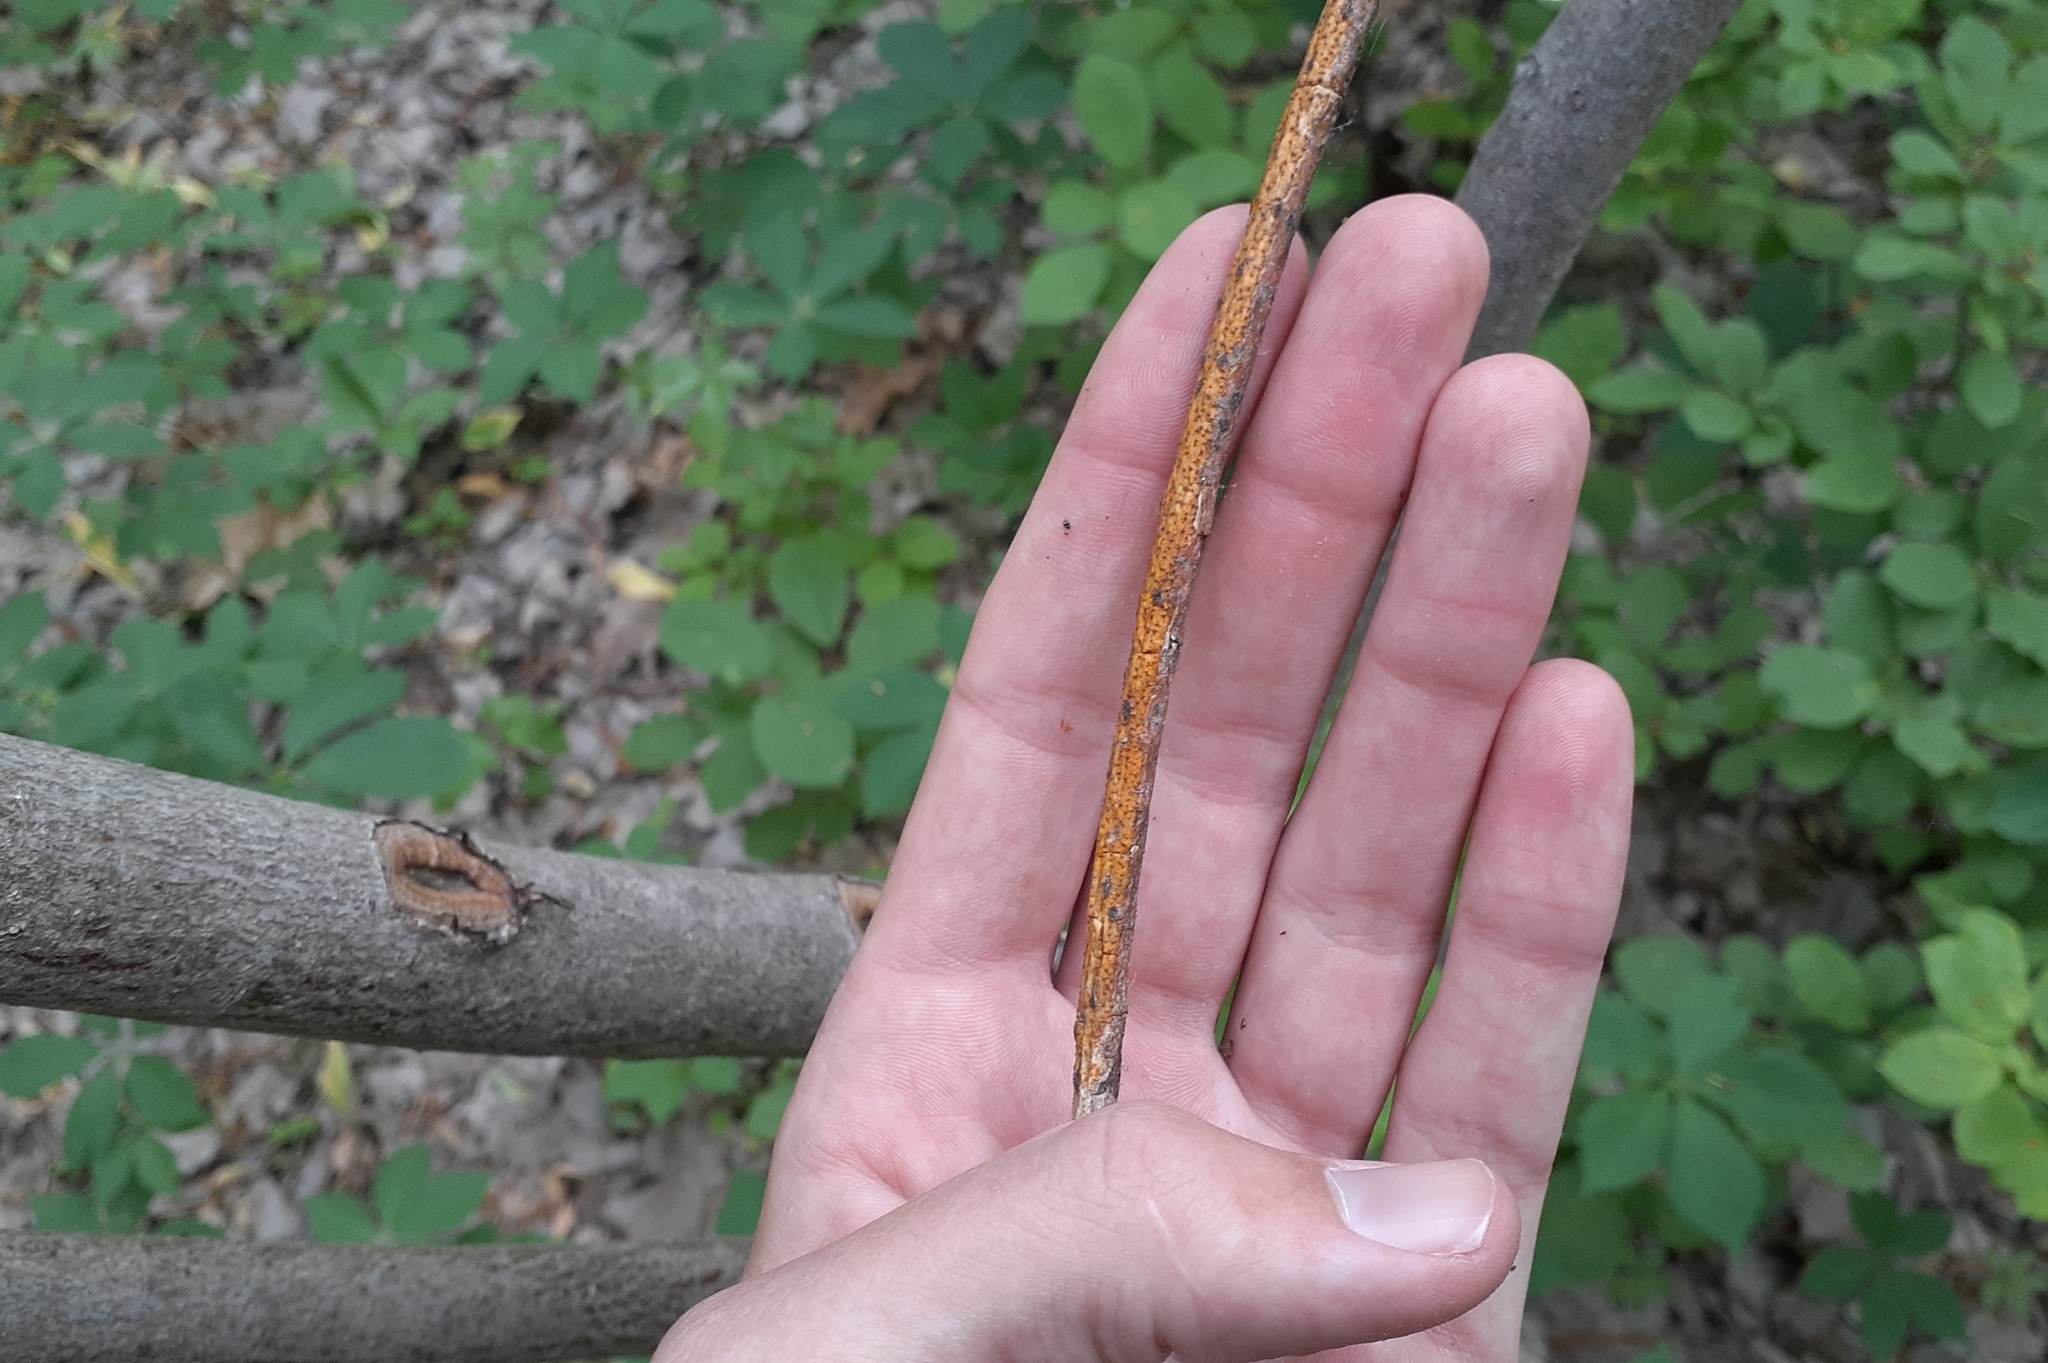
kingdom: Fungi
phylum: Ascomycota
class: Sordariomycetes
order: Diaporthales
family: Cryphonectriaceae
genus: Aurantioporthe
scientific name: Aurantioporthe corni
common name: Dogwood golden canker
